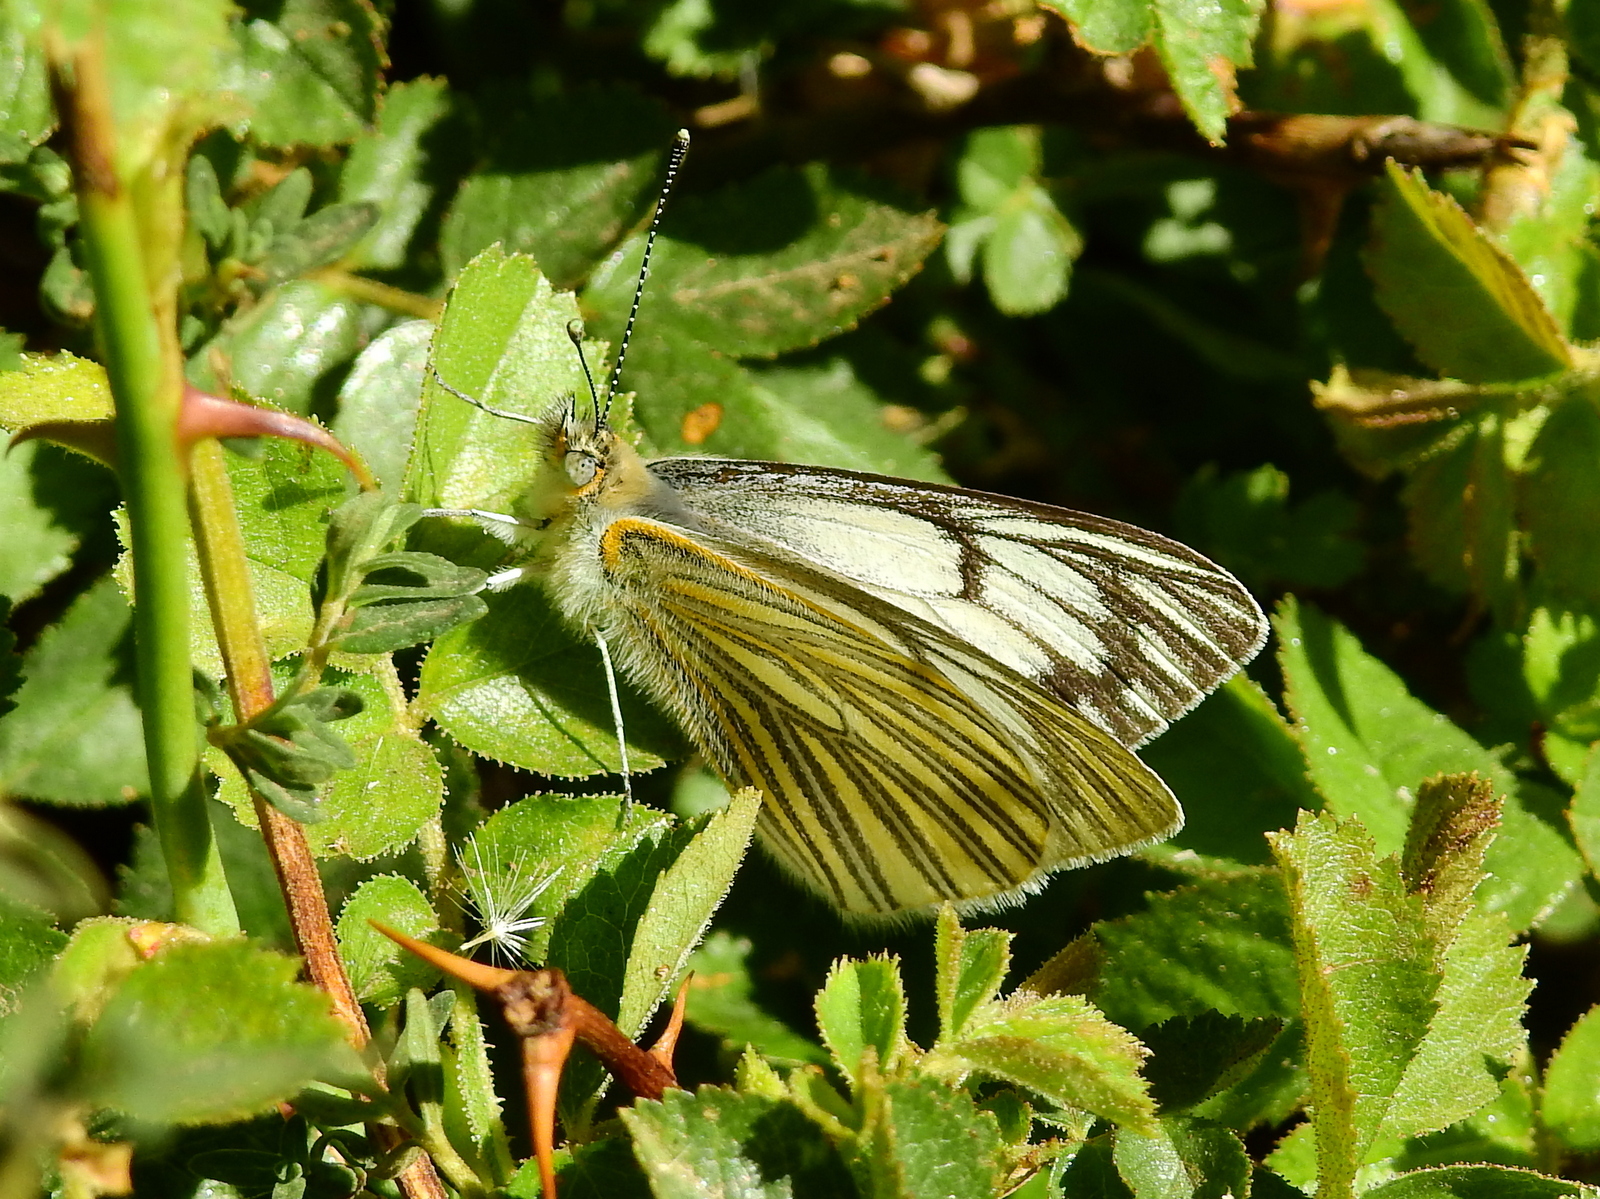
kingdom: Animalia
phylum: Arthropoda
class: Insecta
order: Lepidoptera
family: Pieridae
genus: Tatochila
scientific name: Tatochila orthodice
